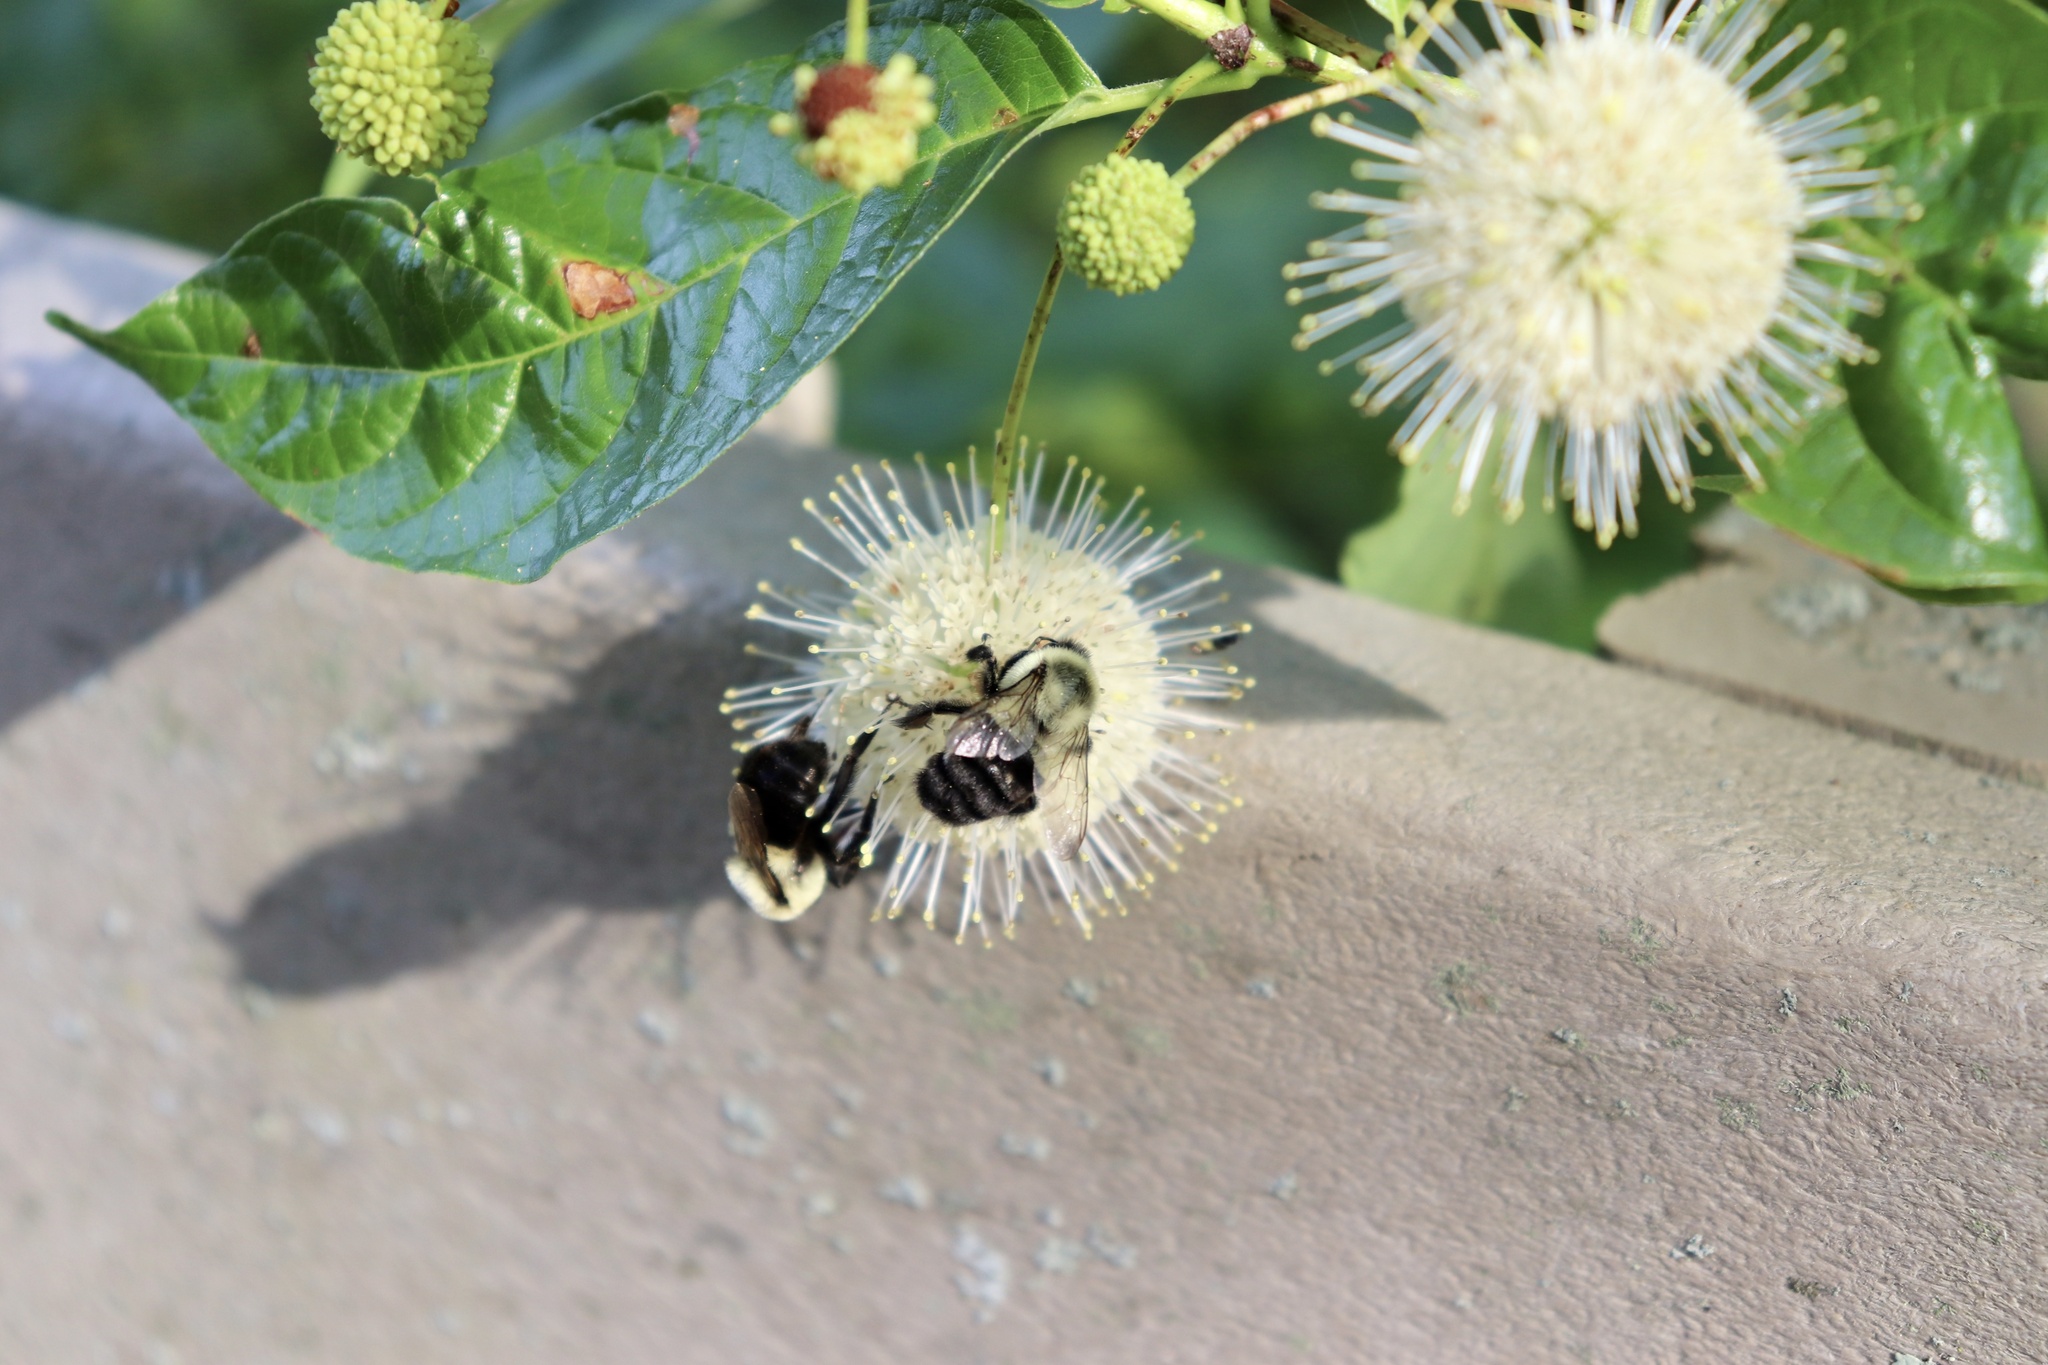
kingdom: Animalia
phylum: Arthropoda
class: Insecta
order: Hymenoptera
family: Apidae
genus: Bombus
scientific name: Bombus impatiens
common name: Common eastern bumble bee
